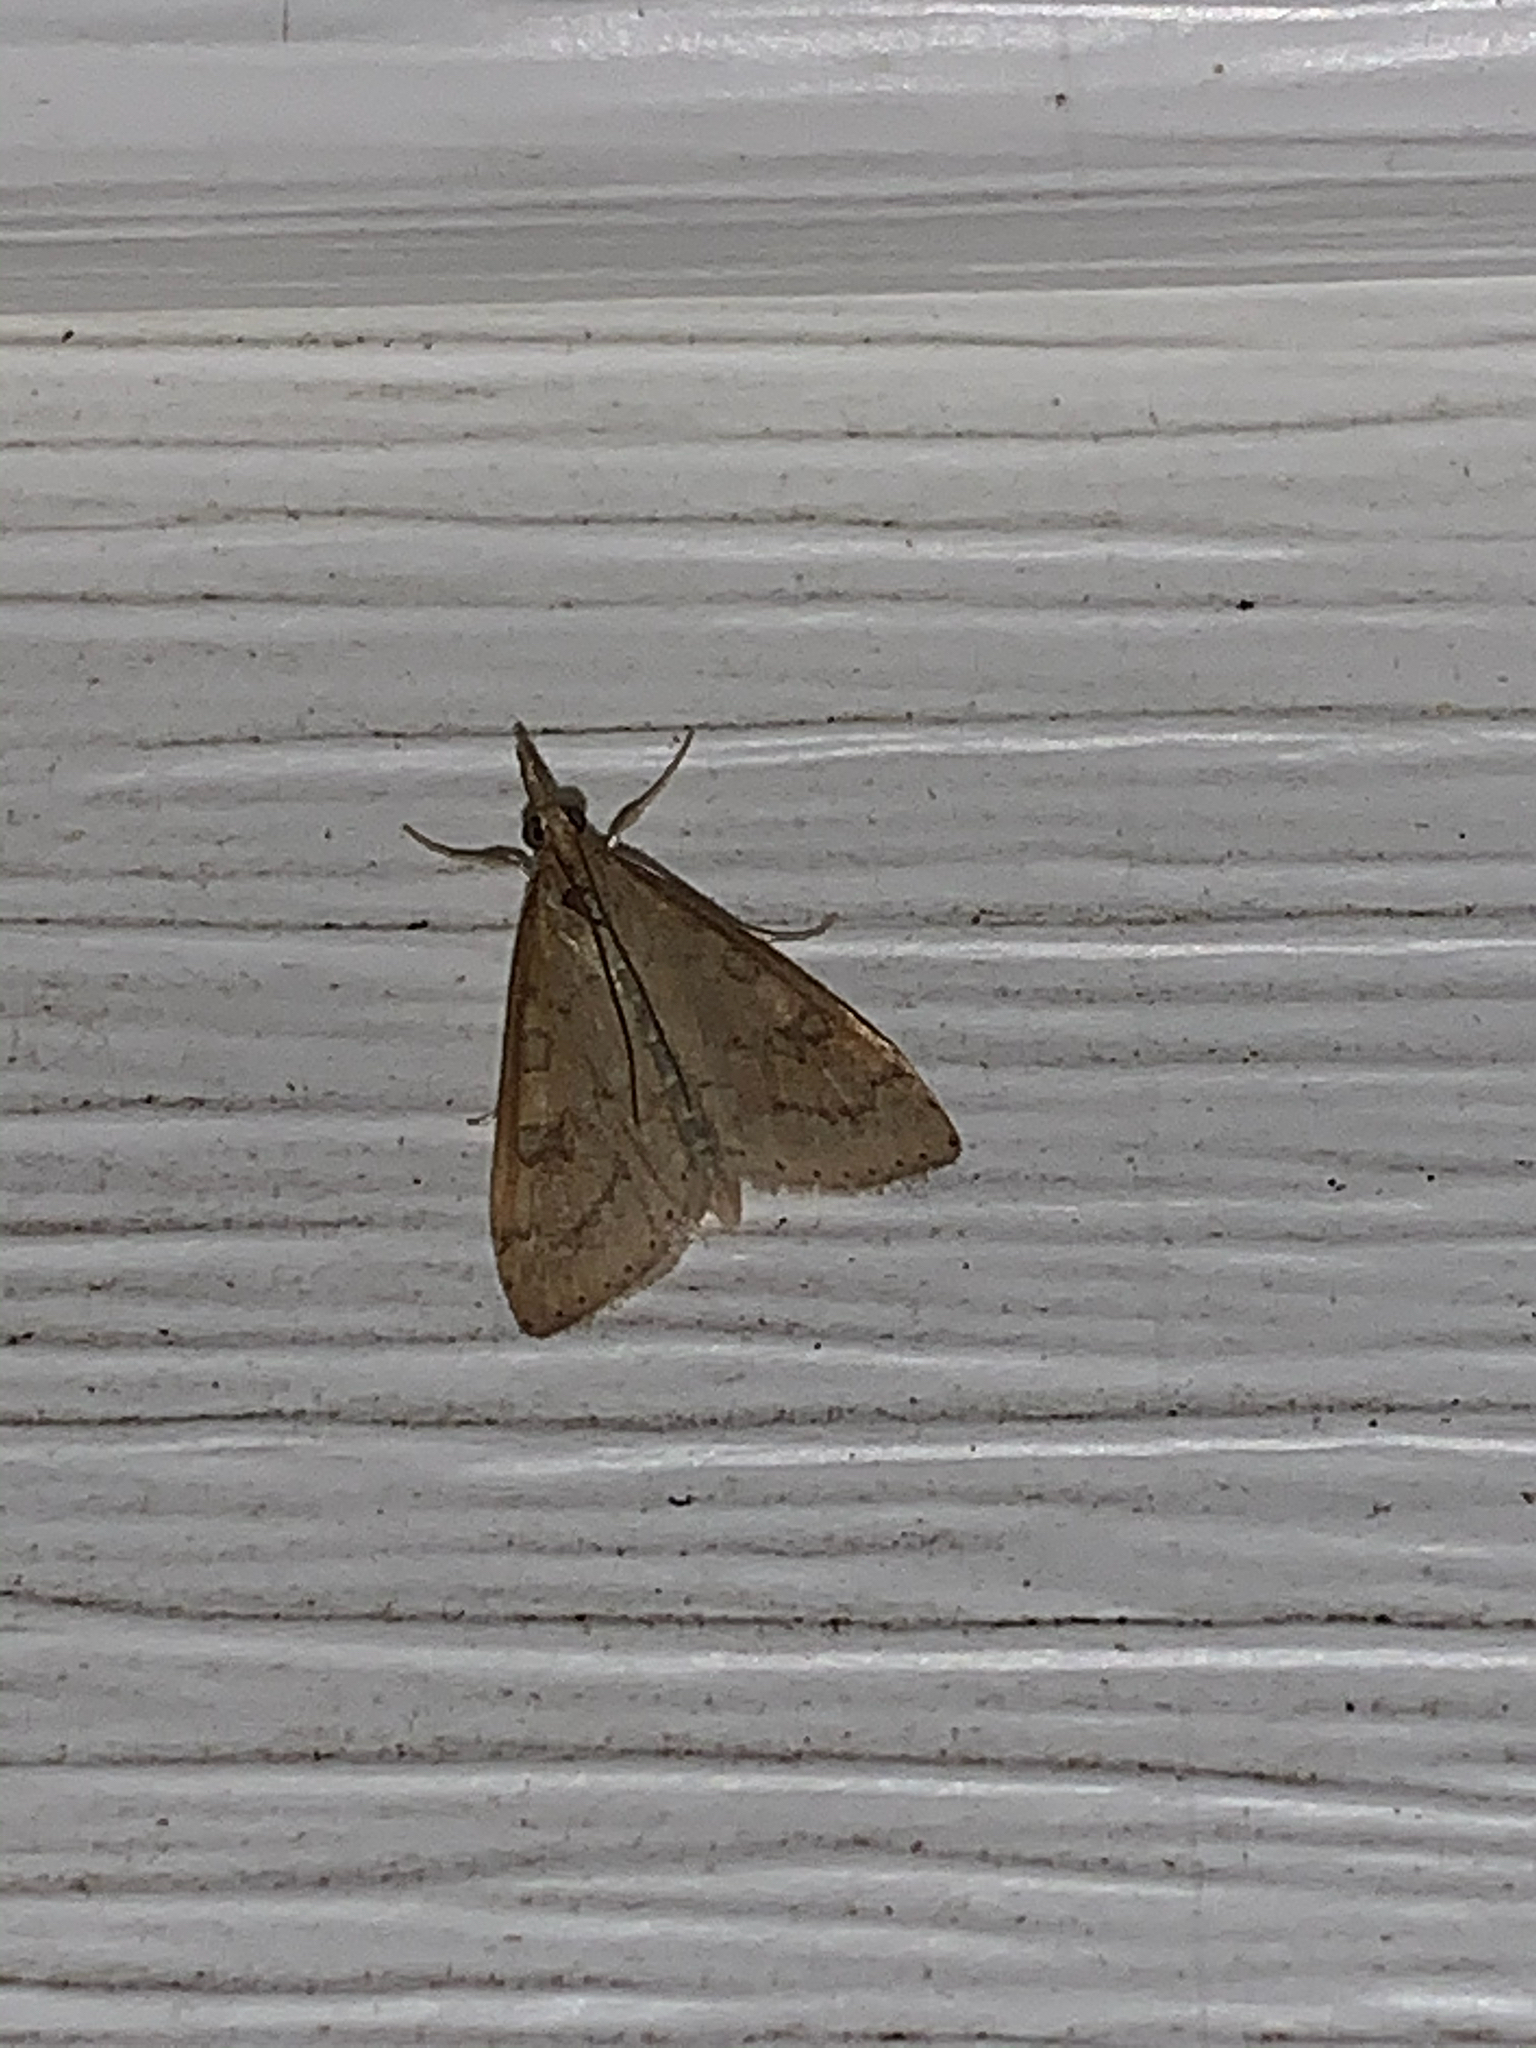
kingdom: Animalia
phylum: Arthropoda
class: Insecta
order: Lepidoptera
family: Crambidae
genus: Udea
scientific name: Udea rubigalis
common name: Celery leaftier moth
